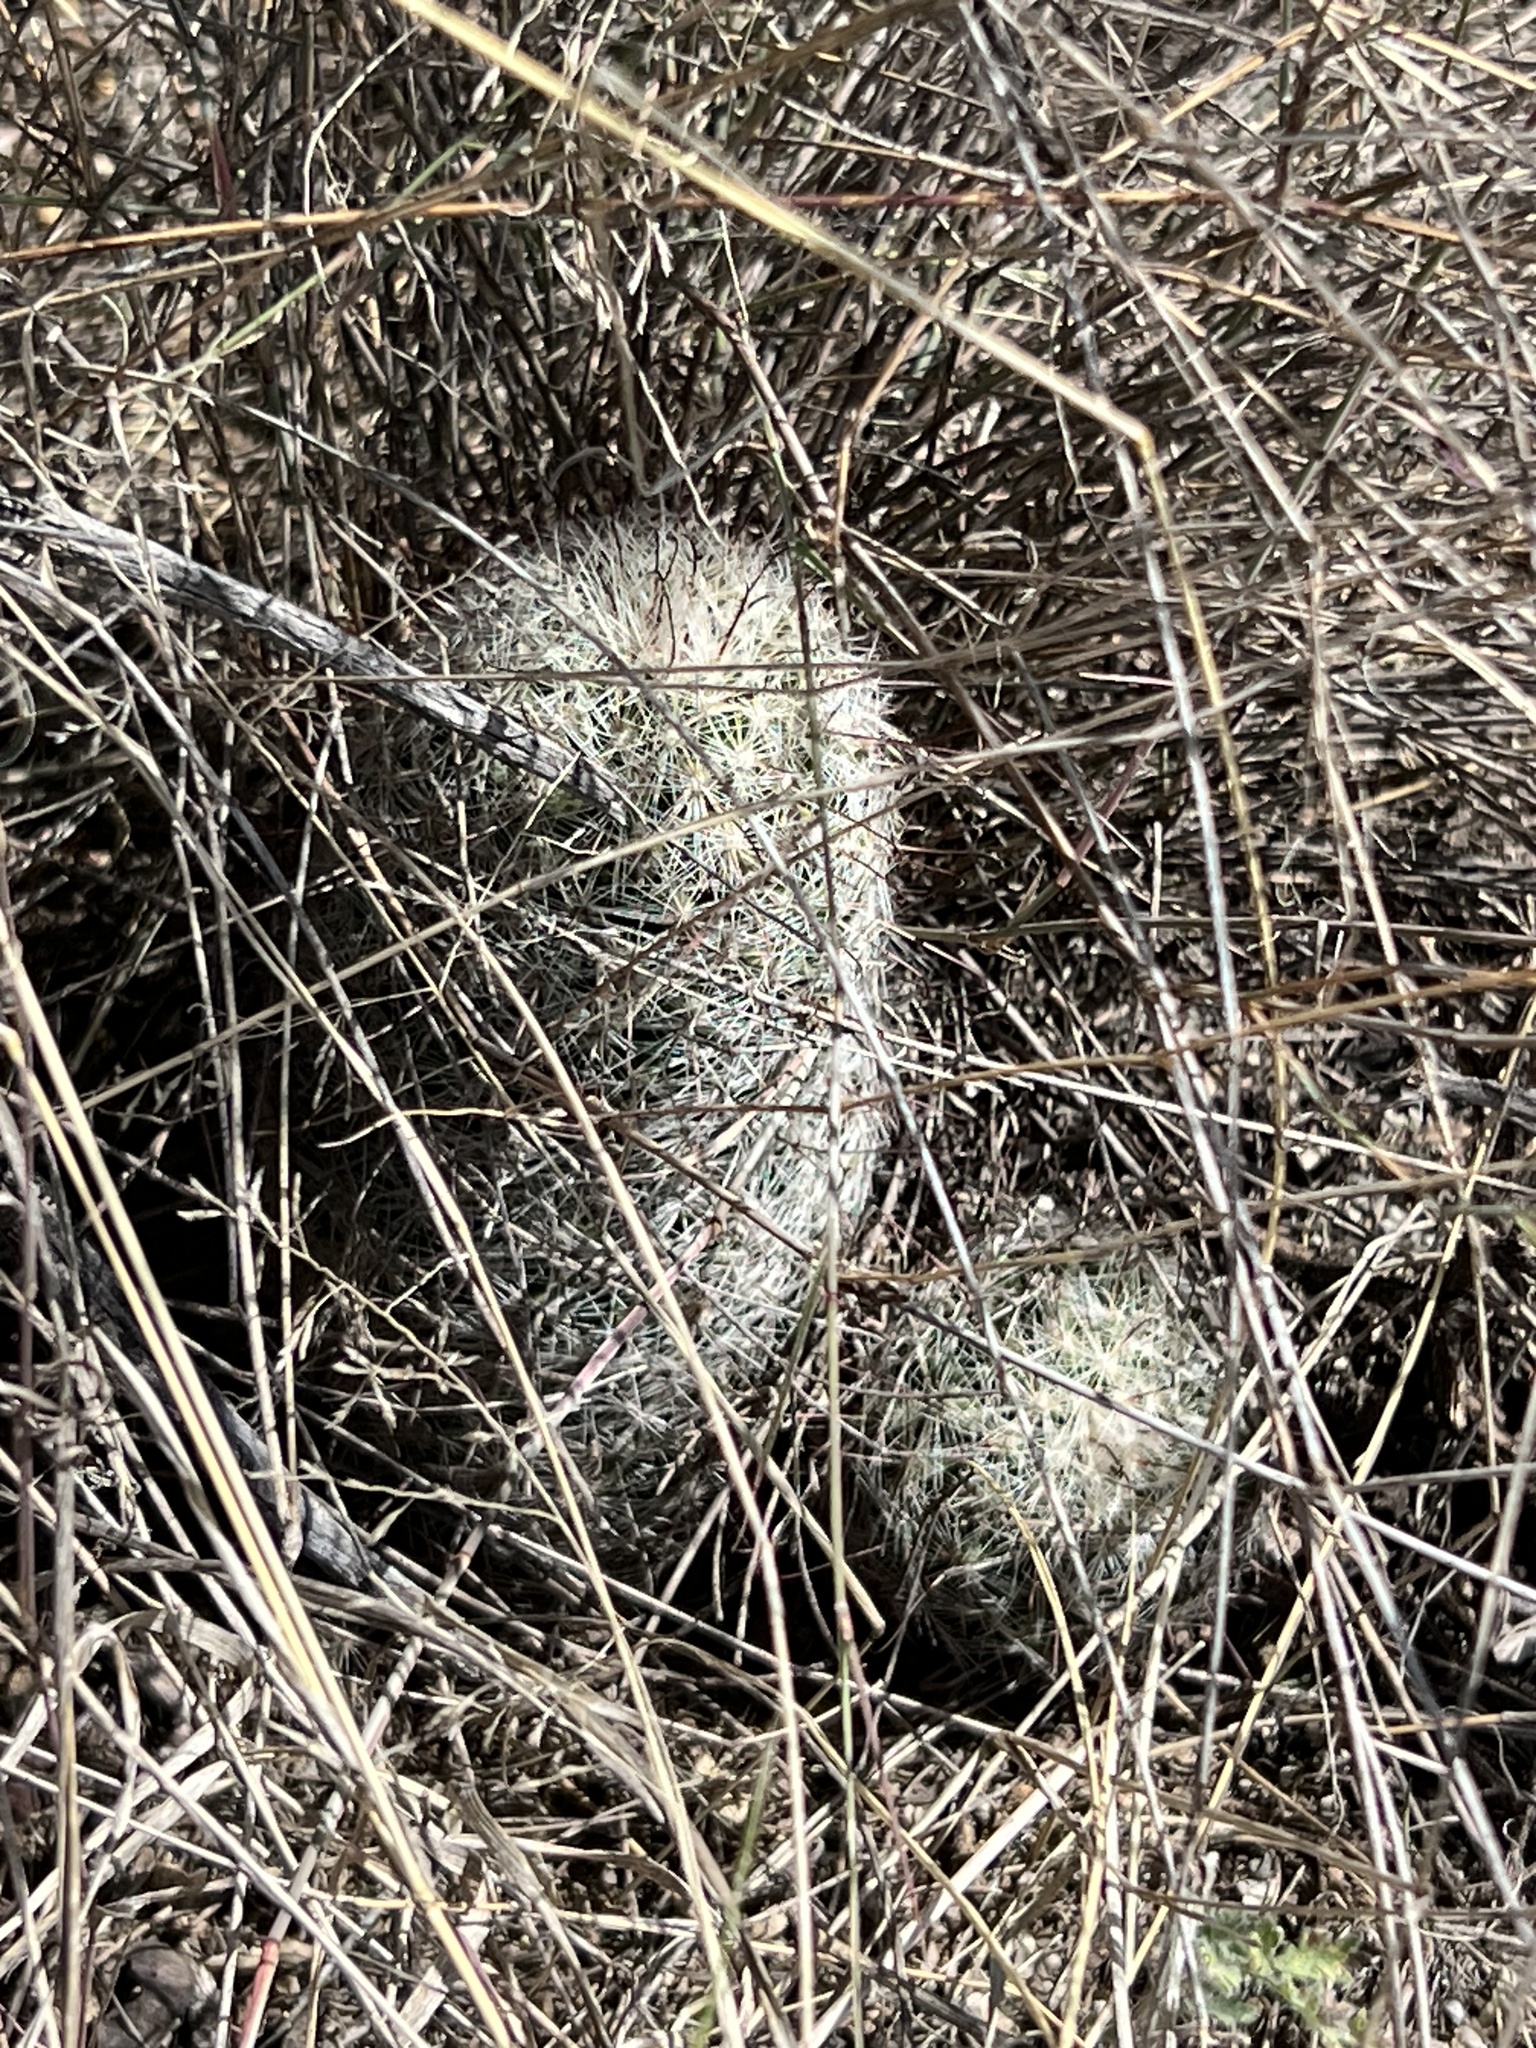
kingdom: Plantae
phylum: Tracheophyta
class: Magnoliopsida
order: Caryophyllales
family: Cactaceae
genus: Cochemiea
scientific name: Cochemiea grahamii
